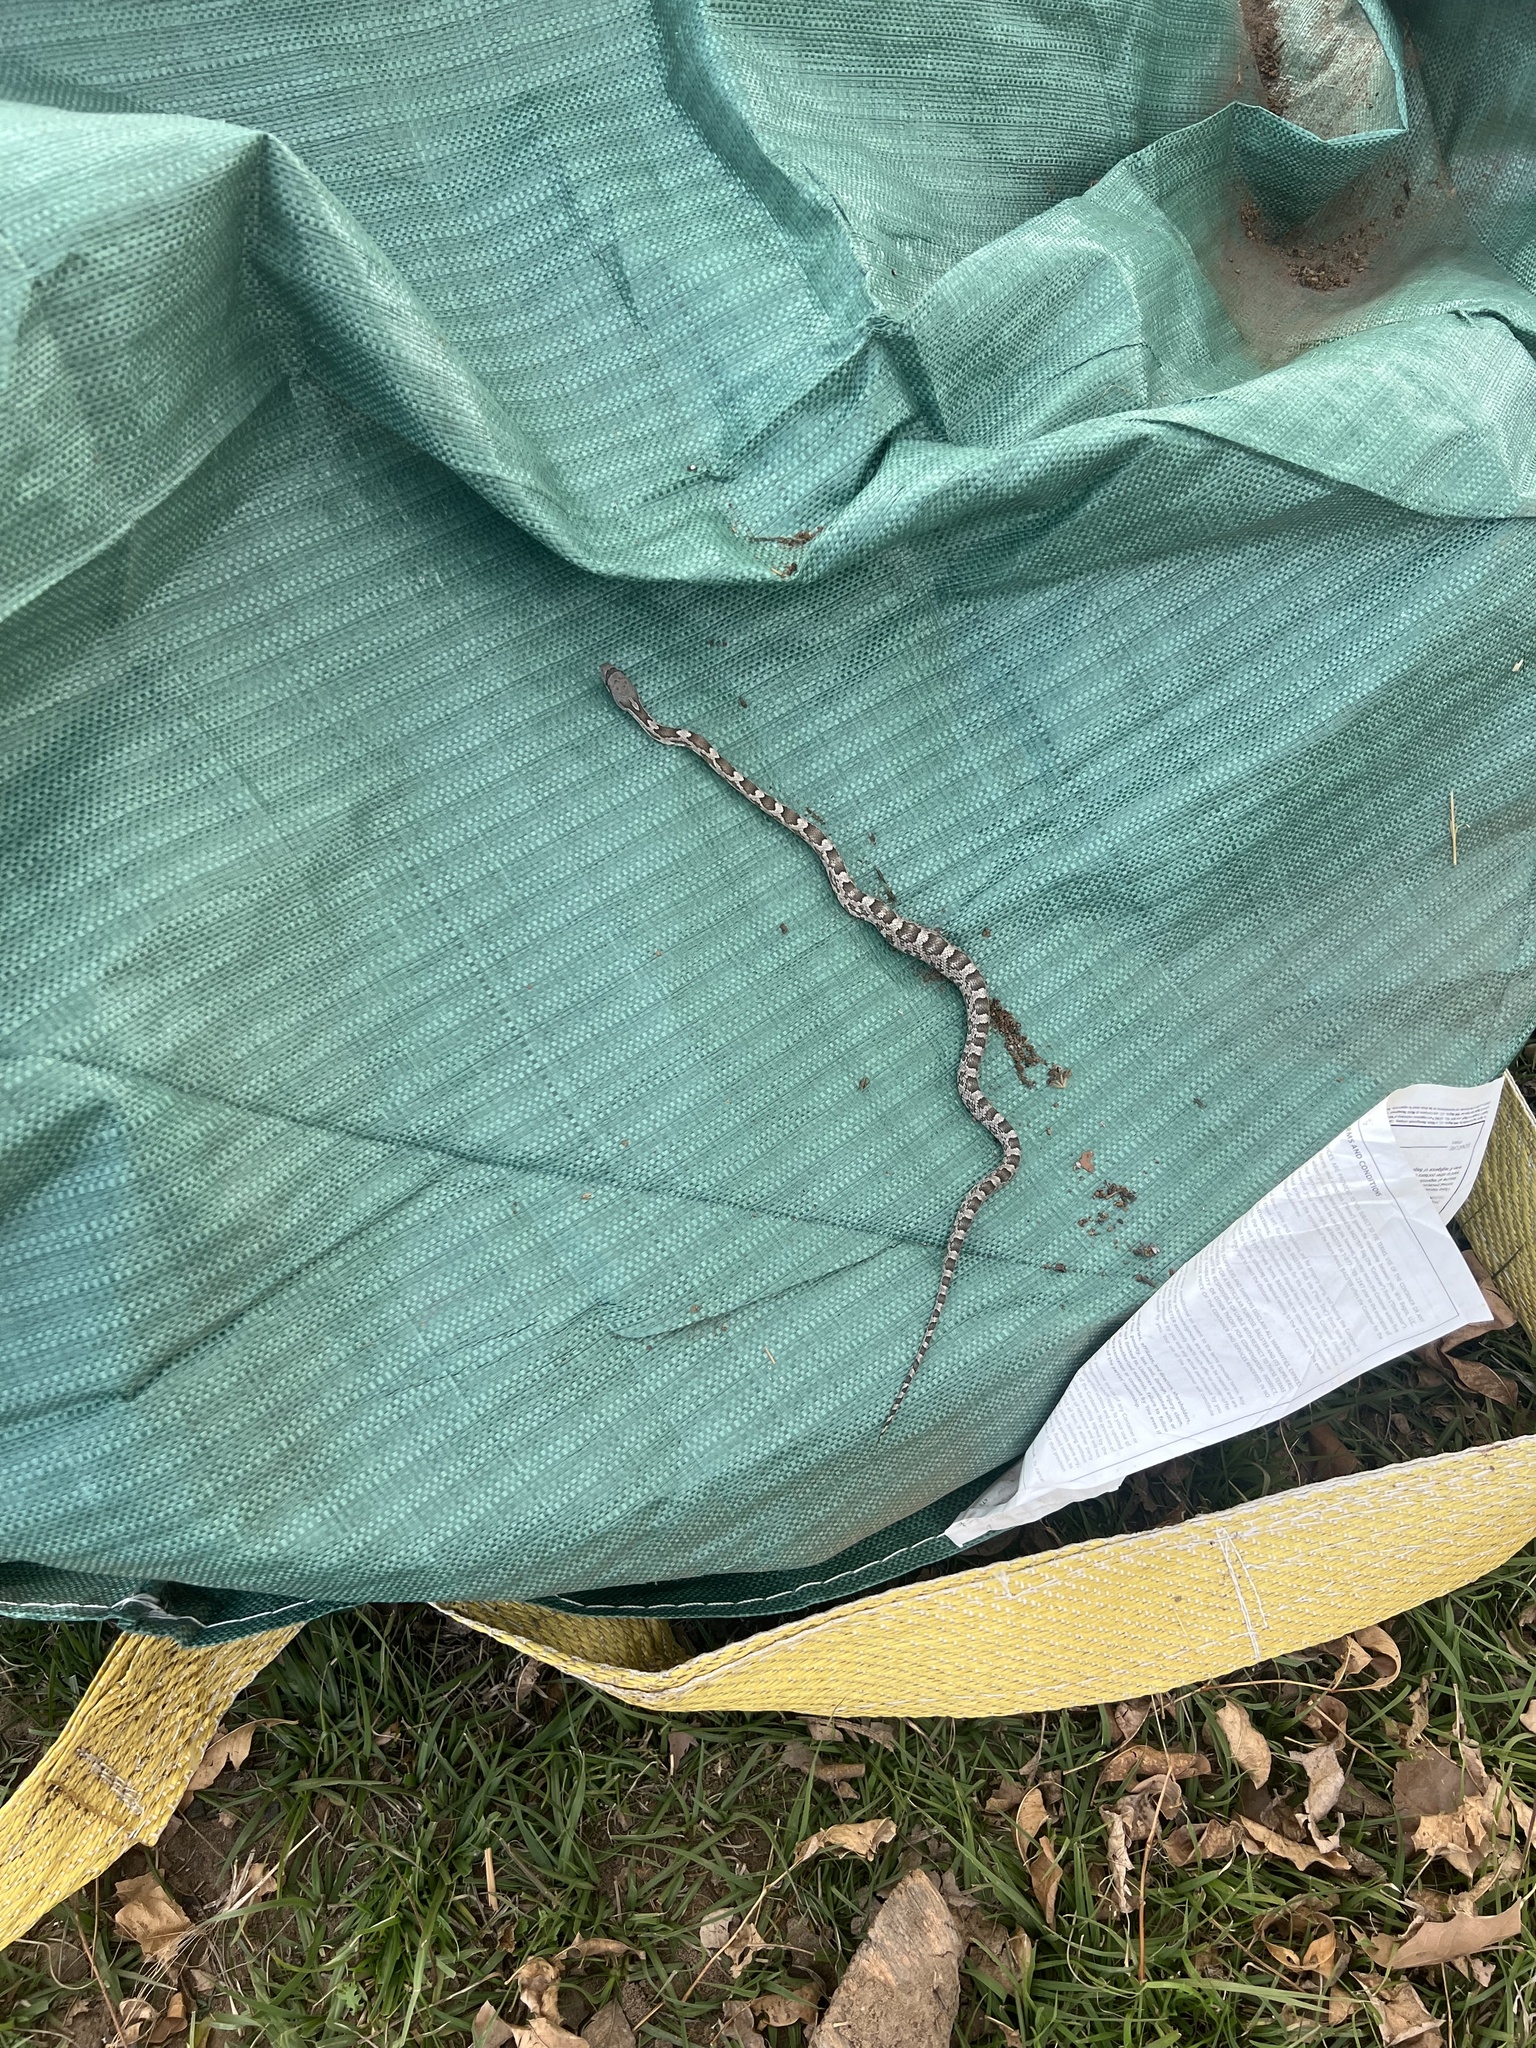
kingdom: Animalia
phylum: Chordata
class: Squamata
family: Colubridae
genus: Pantherophis
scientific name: Pantherophis obsoletus
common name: Black rat snake
